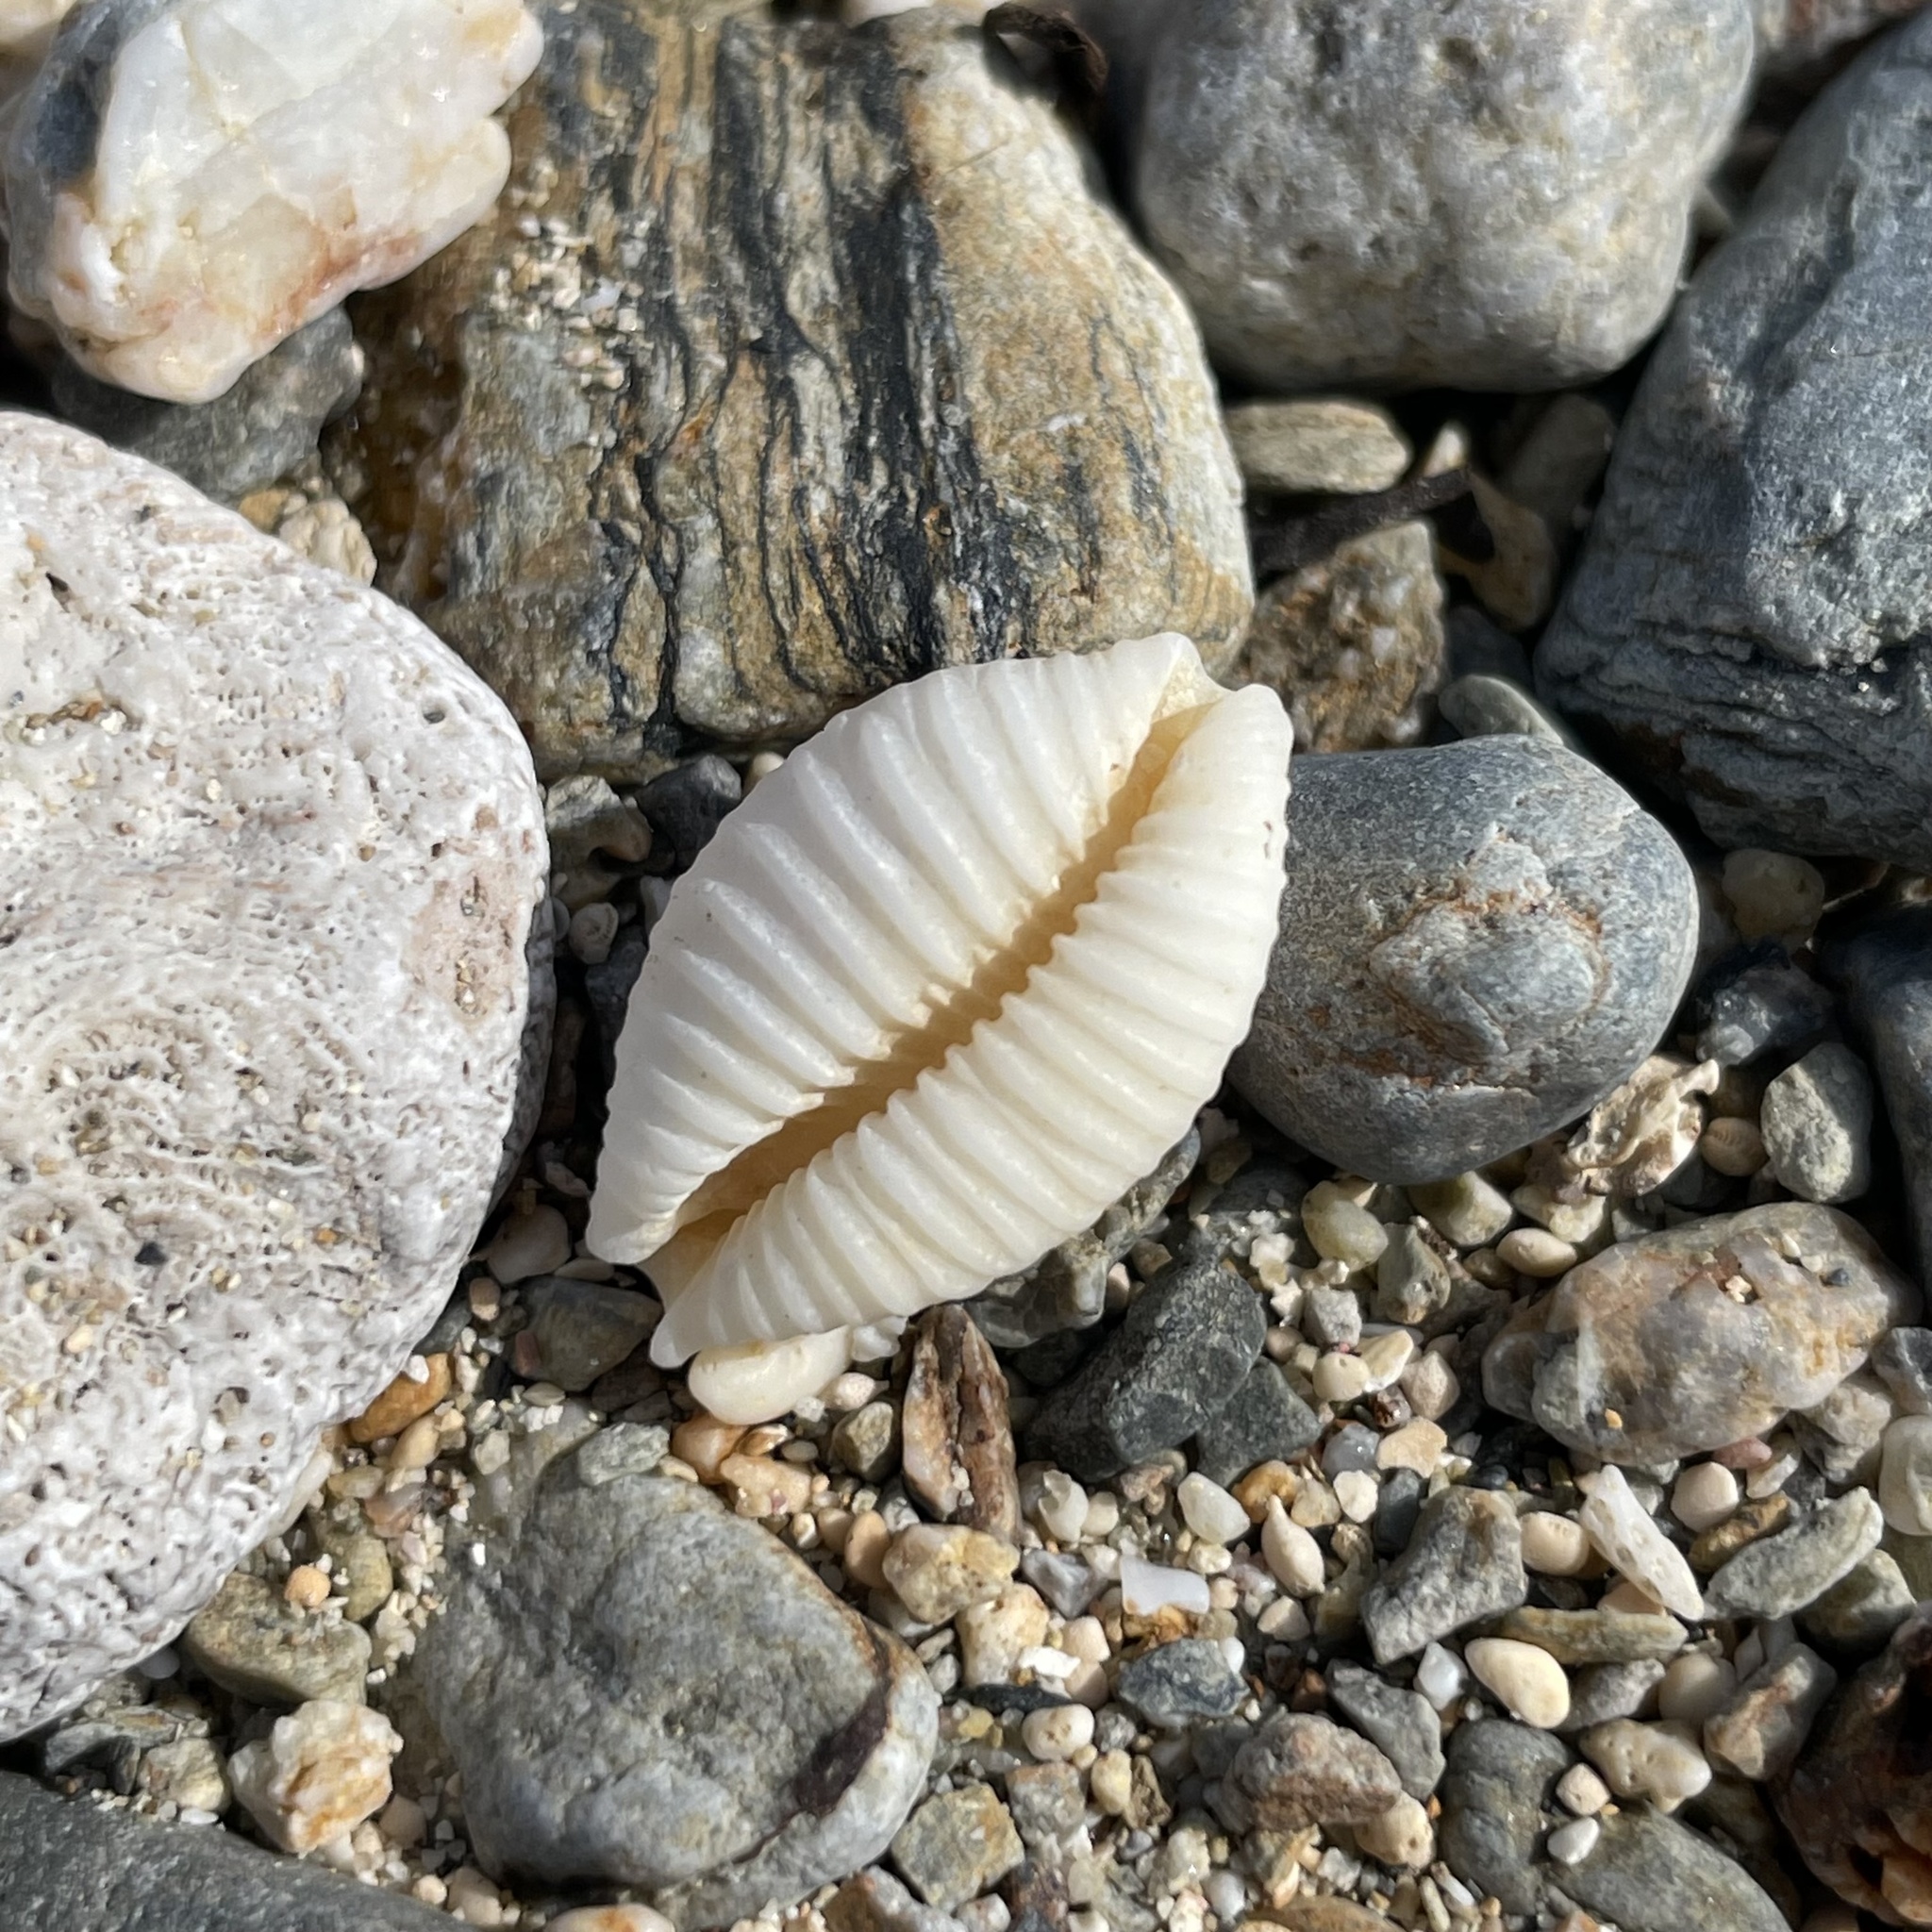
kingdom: Animalia
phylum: Mollusca
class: Gastropoda
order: Littorinimorpha
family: Cypraeidae
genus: Nucleolaria
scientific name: Nucleolaria nucleus
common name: Kernel cowry
